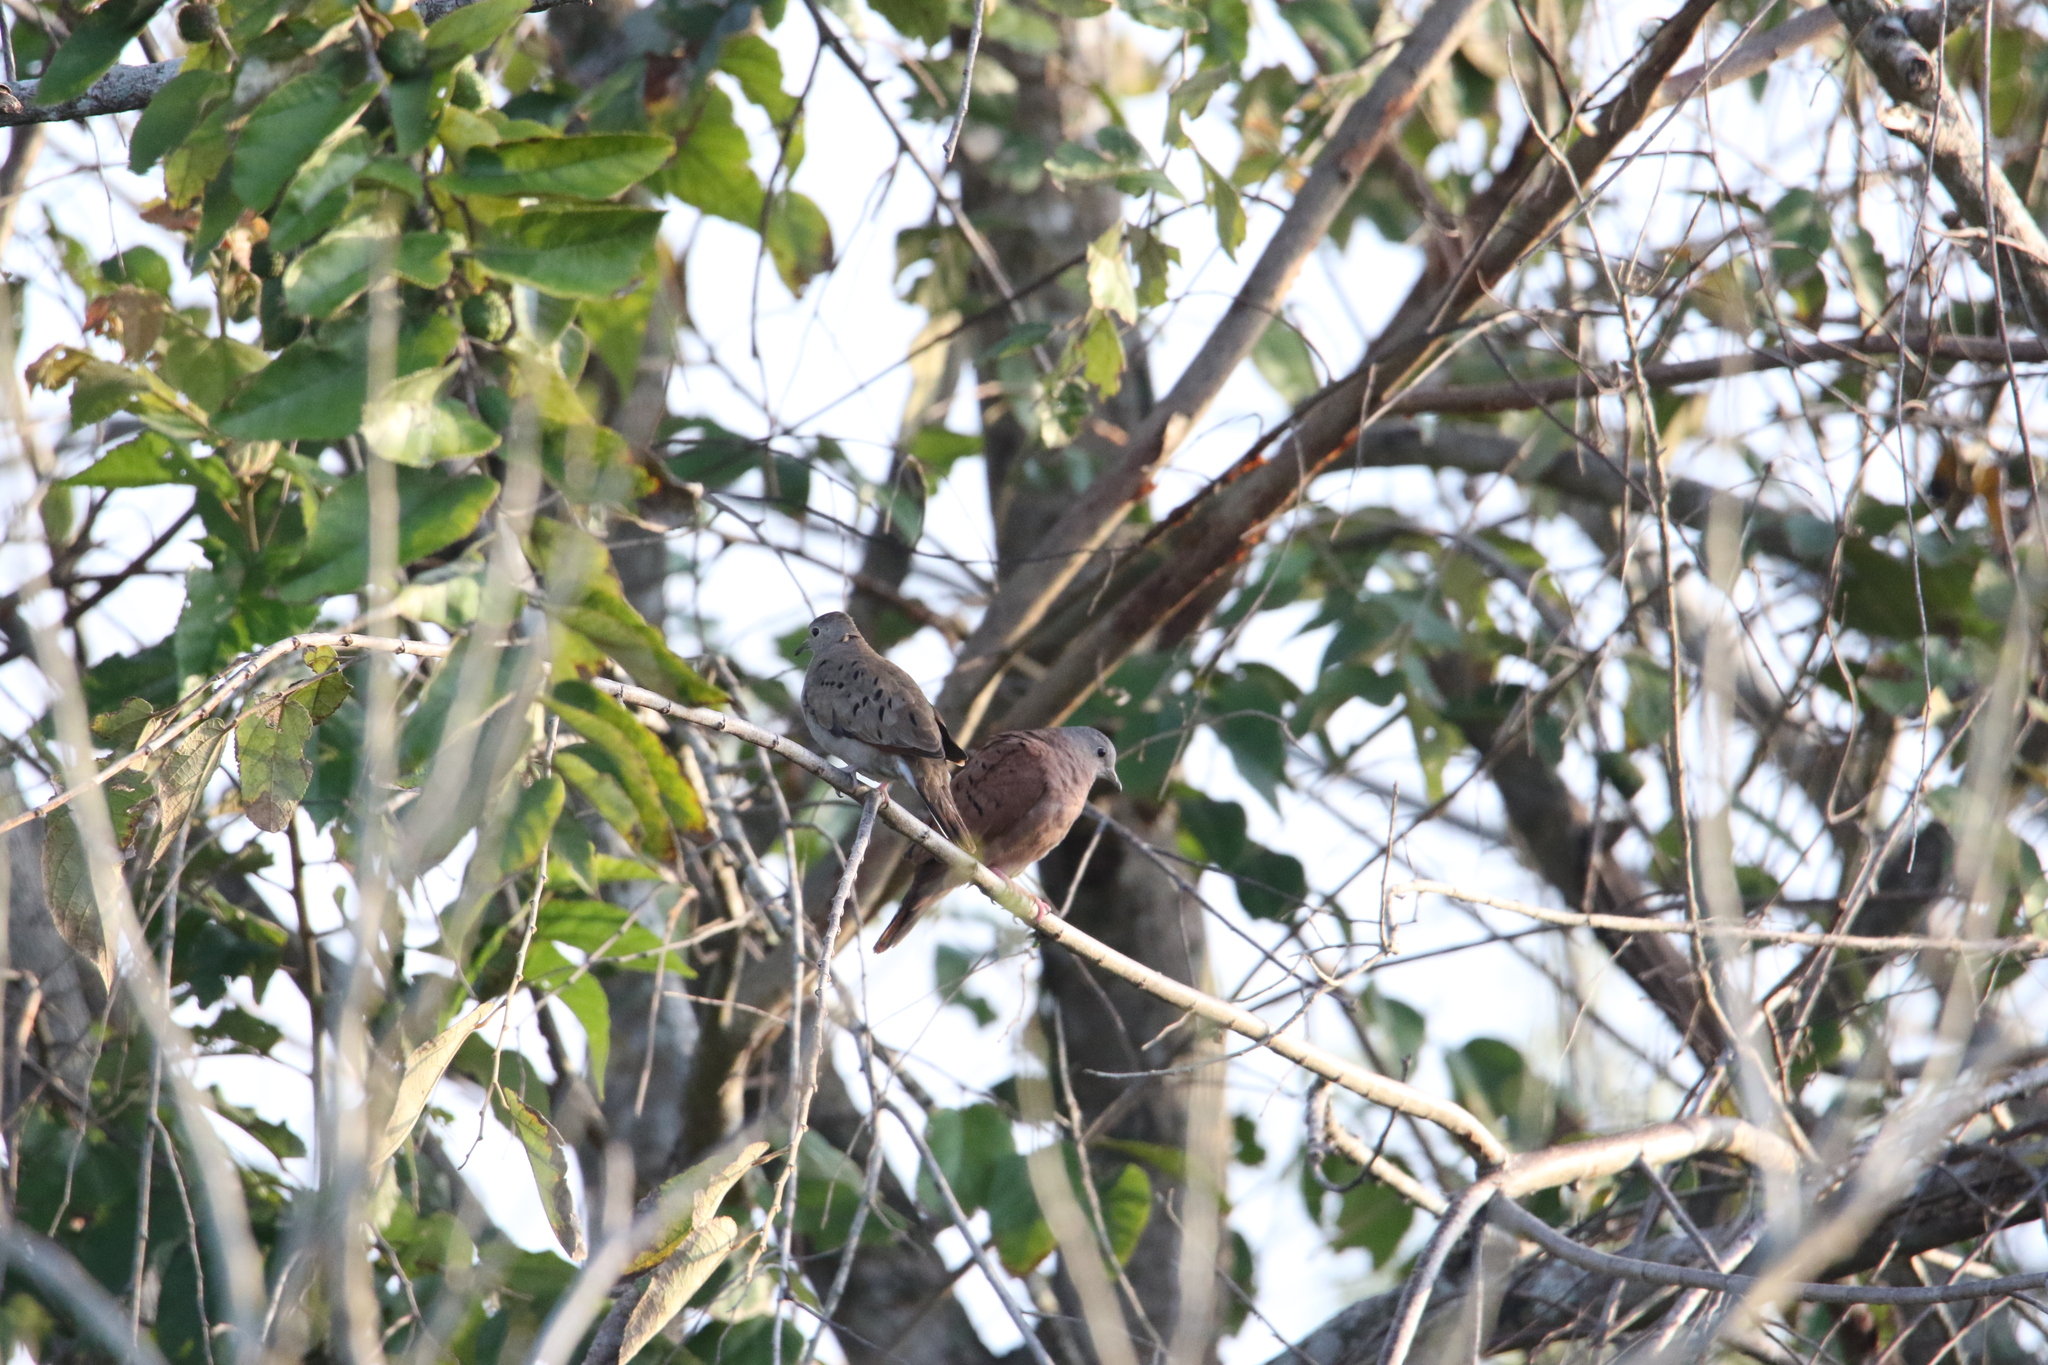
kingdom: Animalia
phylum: Chordata
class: Aves
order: Columbiformes
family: Columbidae
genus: Columbina
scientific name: Columbina talpacoti
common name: Ruddy ground dove
